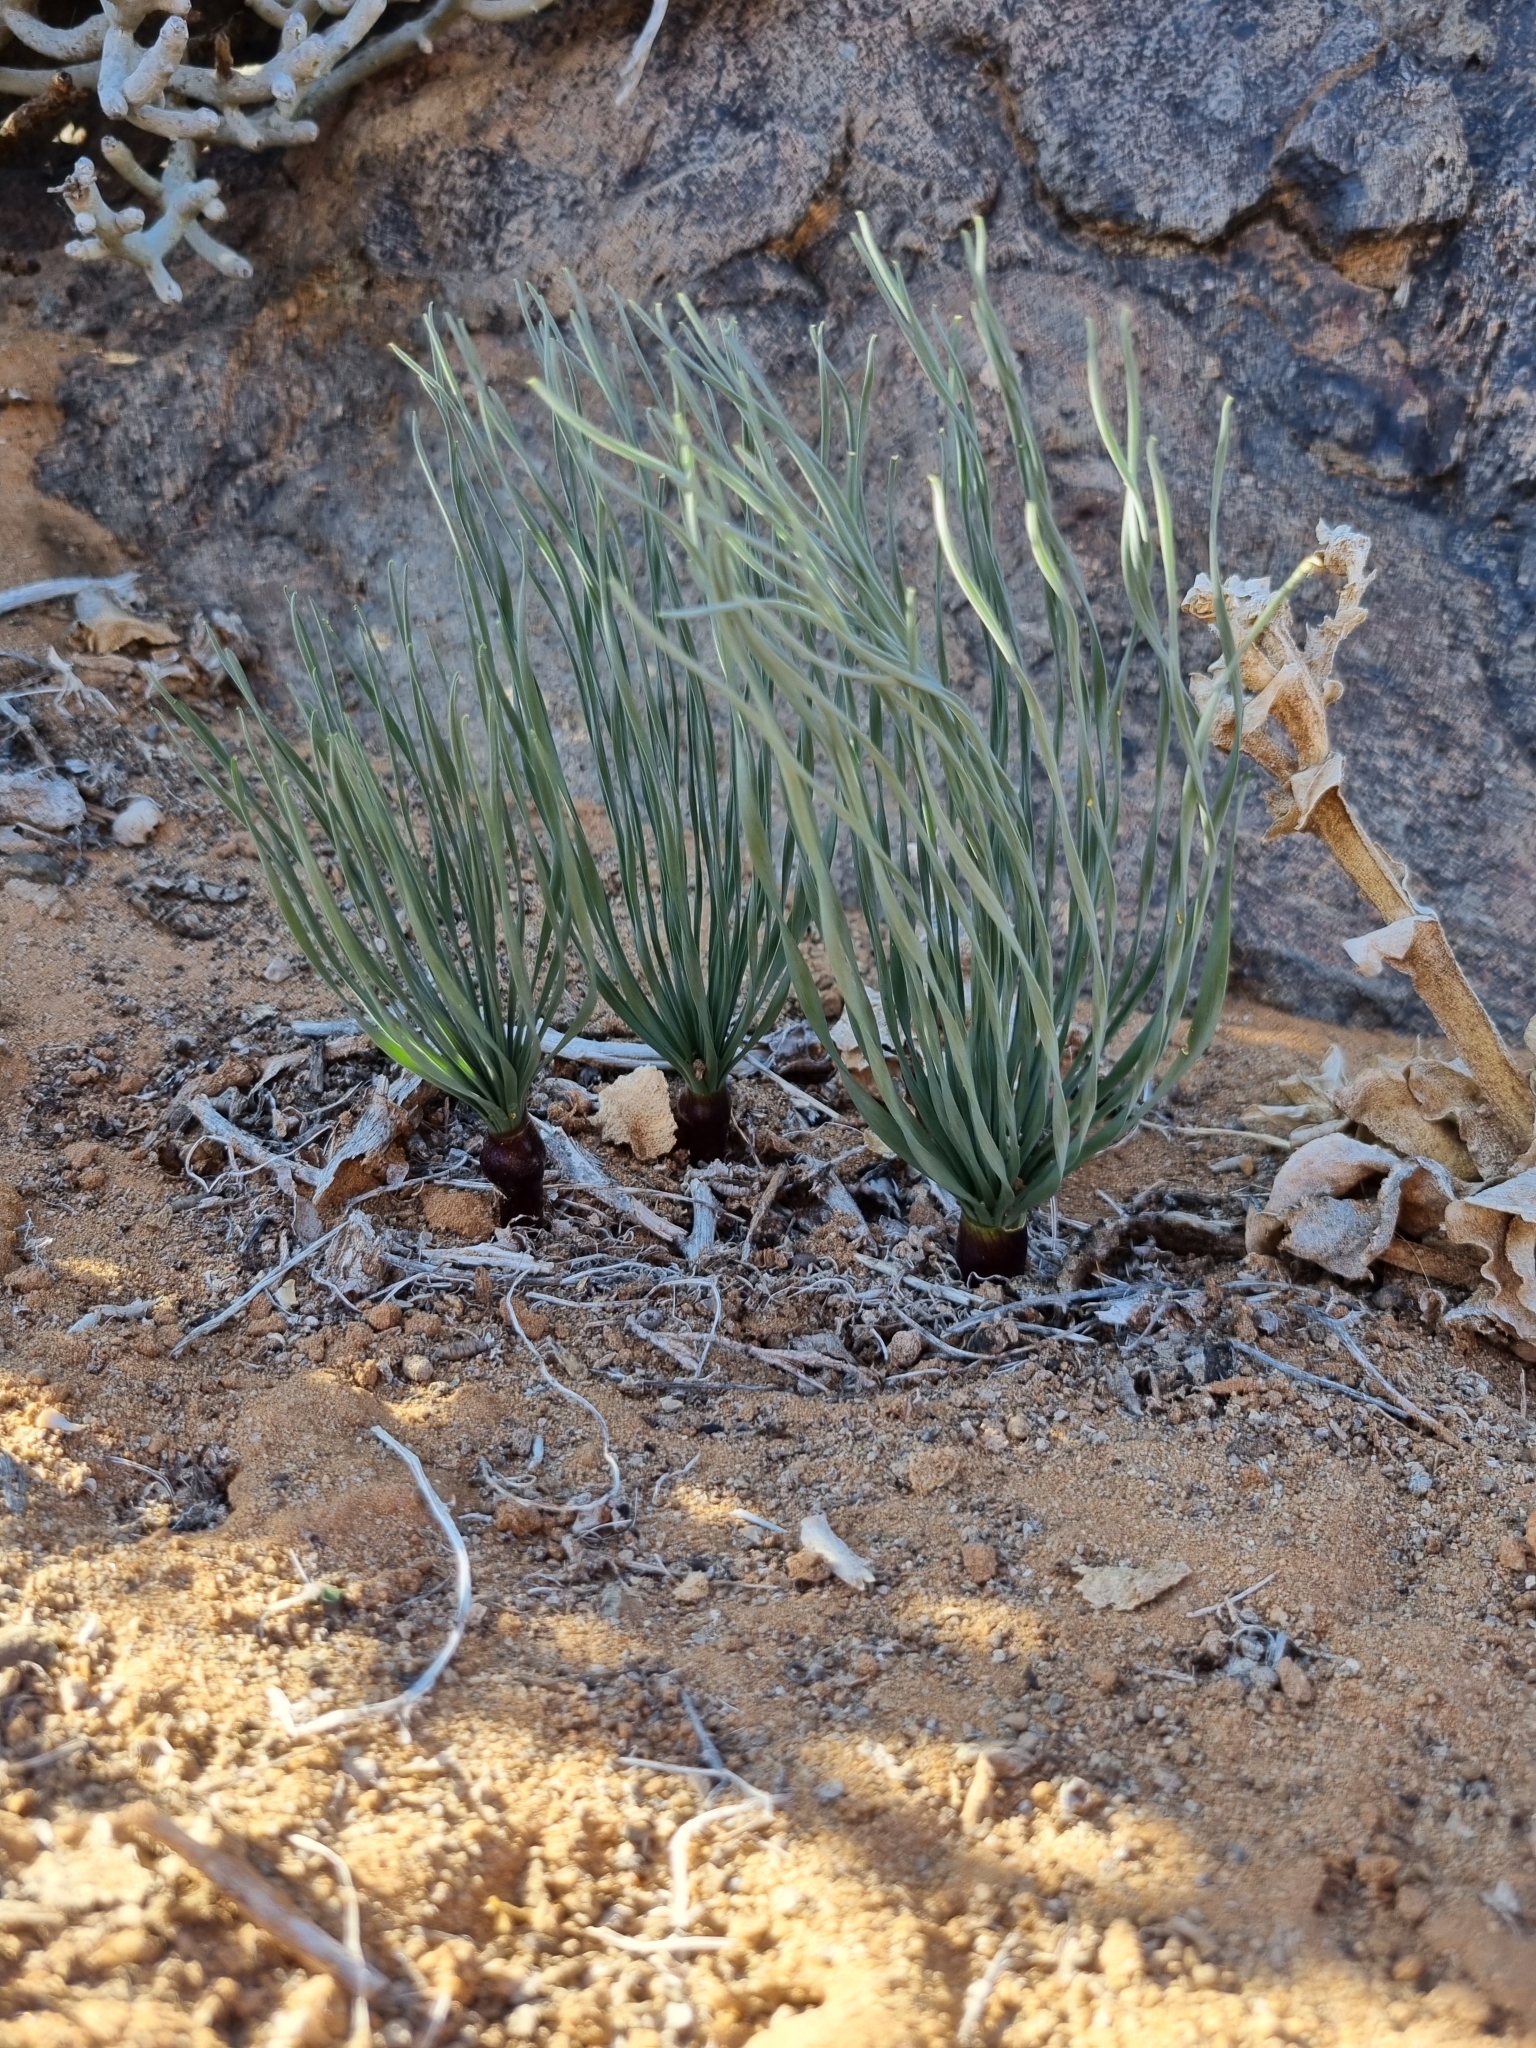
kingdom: Plantae
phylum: Tracheophyta
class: Liliopsida
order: Asparagales
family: Amaryllidaceae
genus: Gethyllis
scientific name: Gethyllis namaquensis
